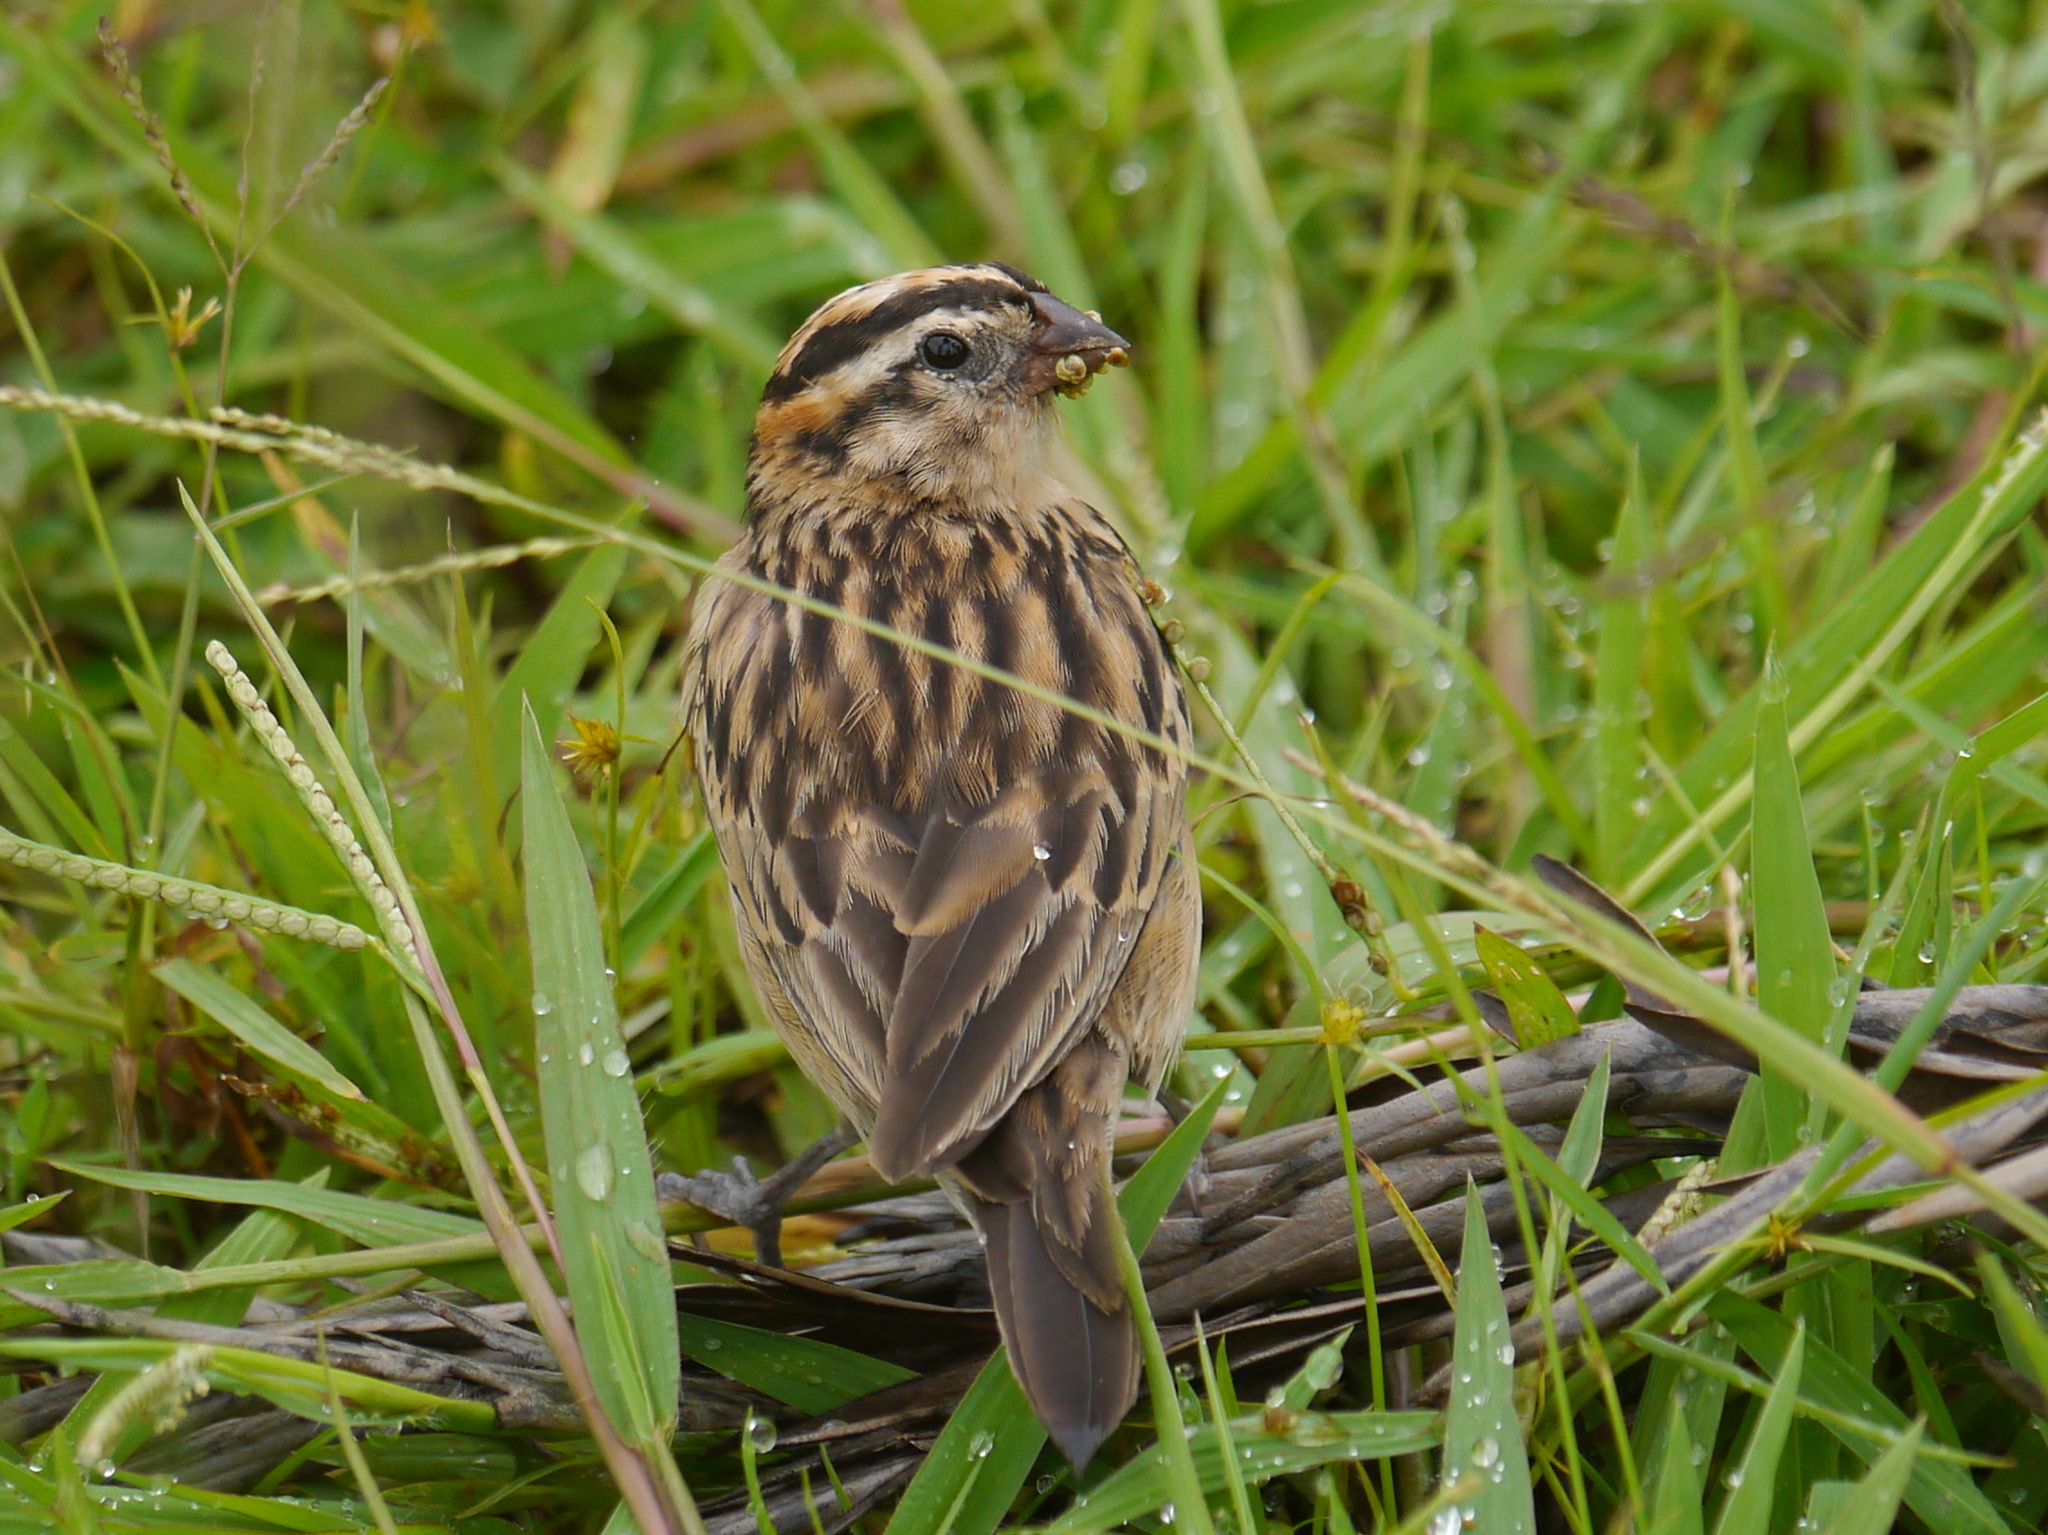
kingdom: Animalia
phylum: Chordata
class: Aves
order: Passeriformes
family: Viduidae
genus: Vidua
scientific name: Vidua macroura
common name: Pin-tailed whydah
